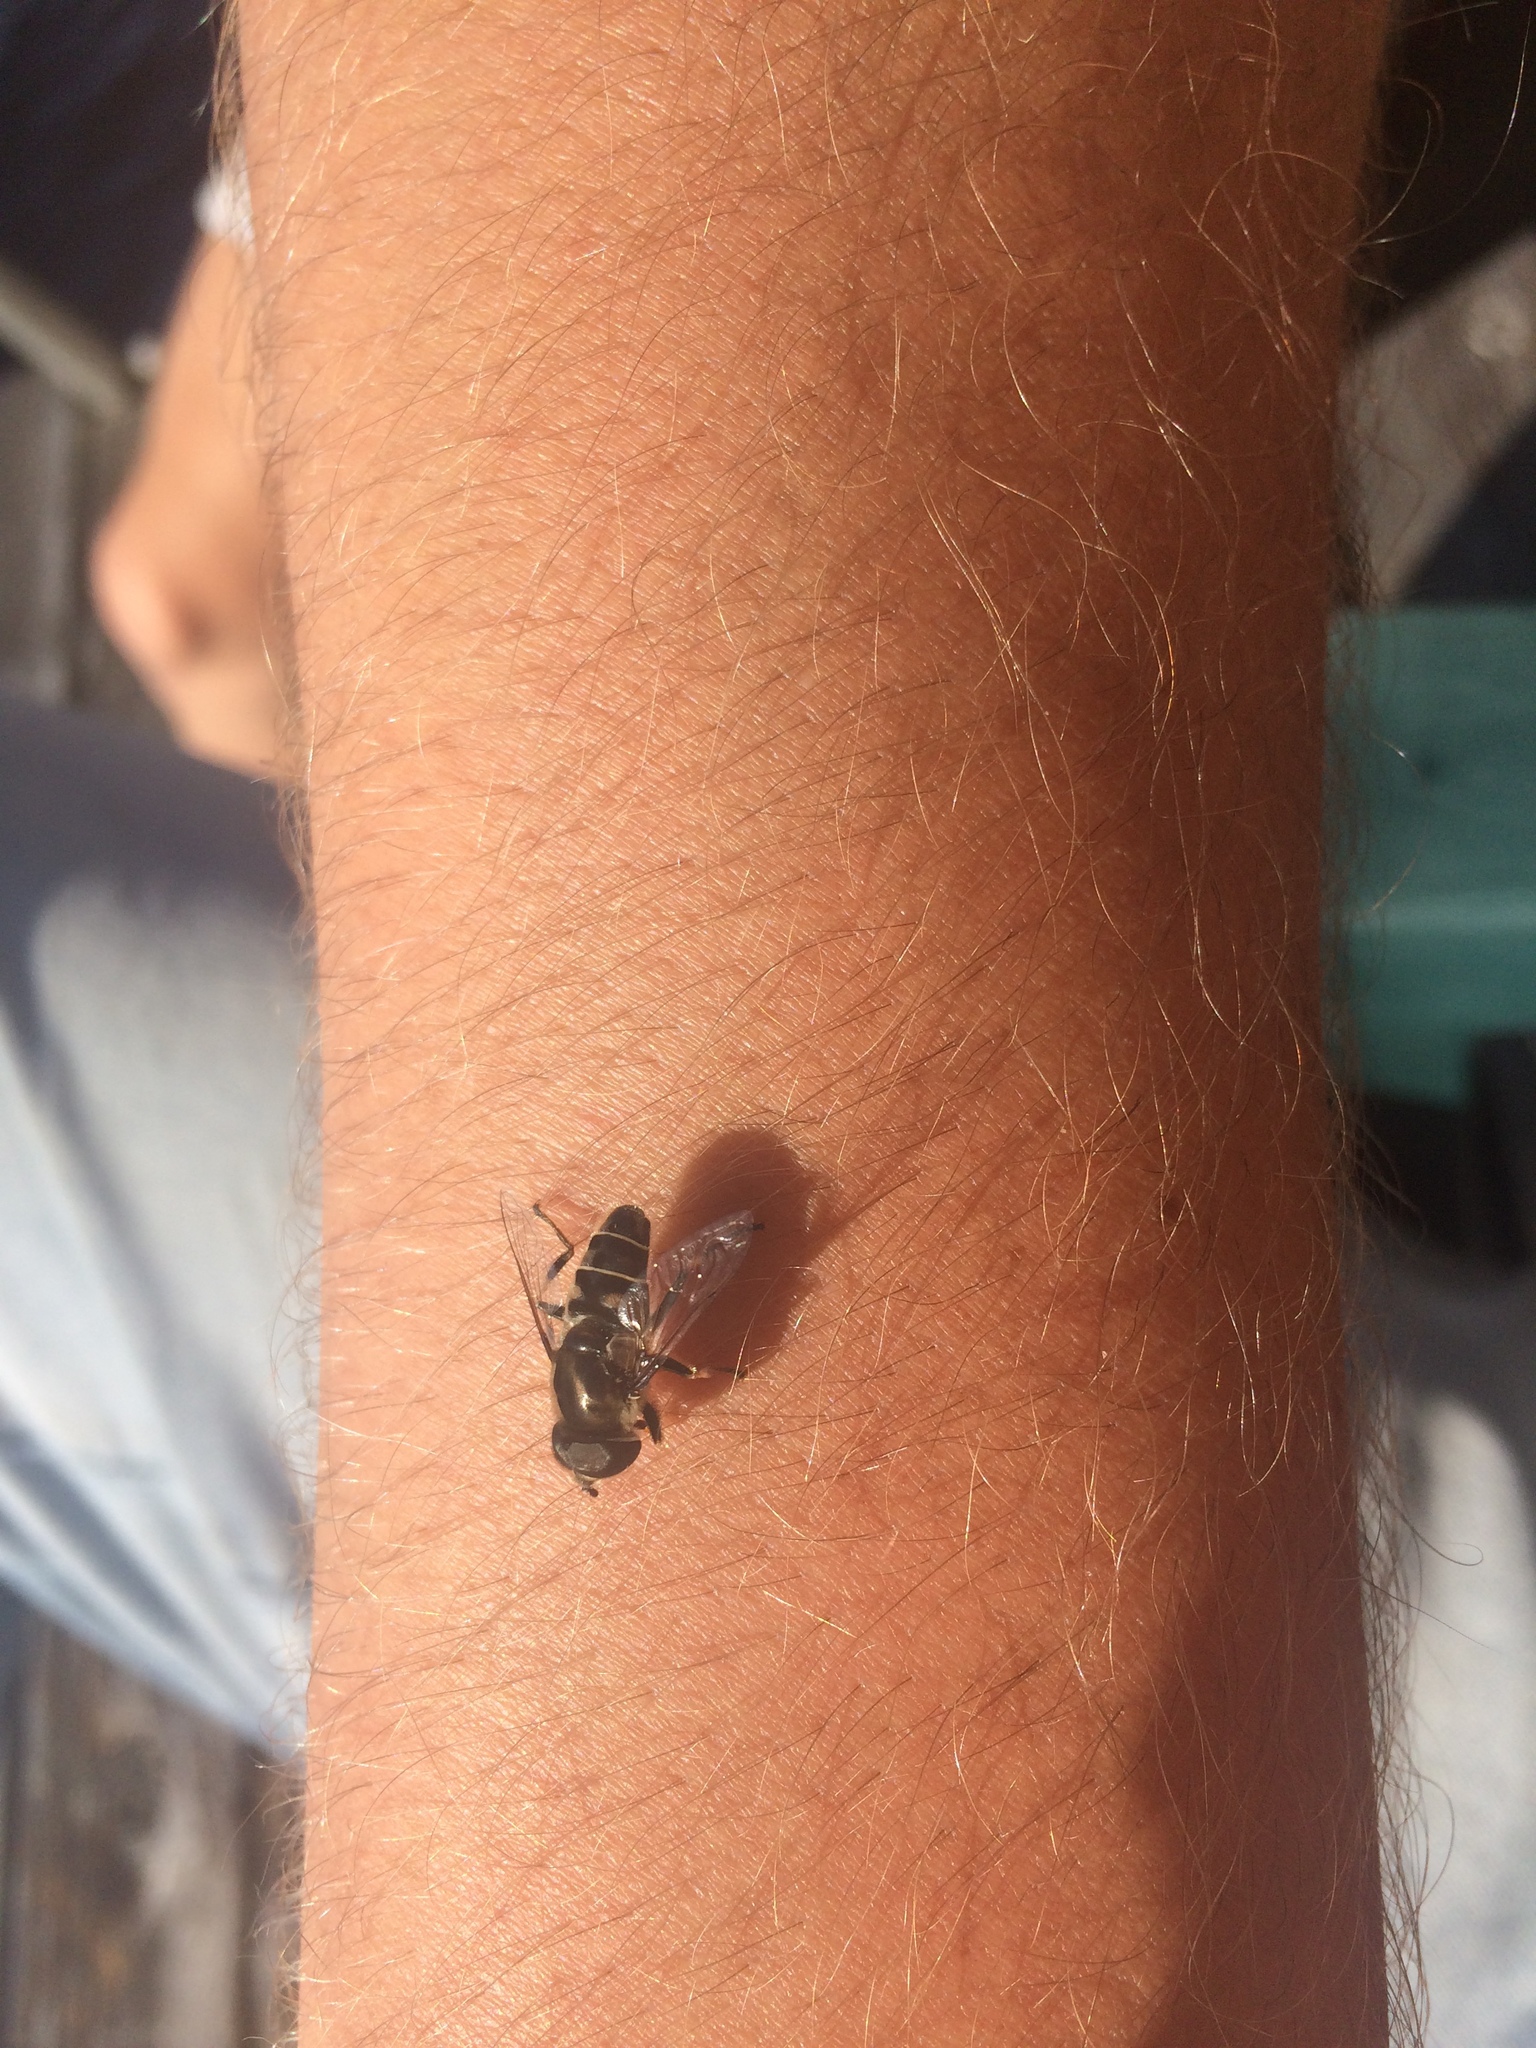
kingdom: Animalia
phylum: Arthropoda
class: Insecta
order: Diptera
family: Syrphidae
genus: Eristalis
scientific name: Eristalis dimidiata
